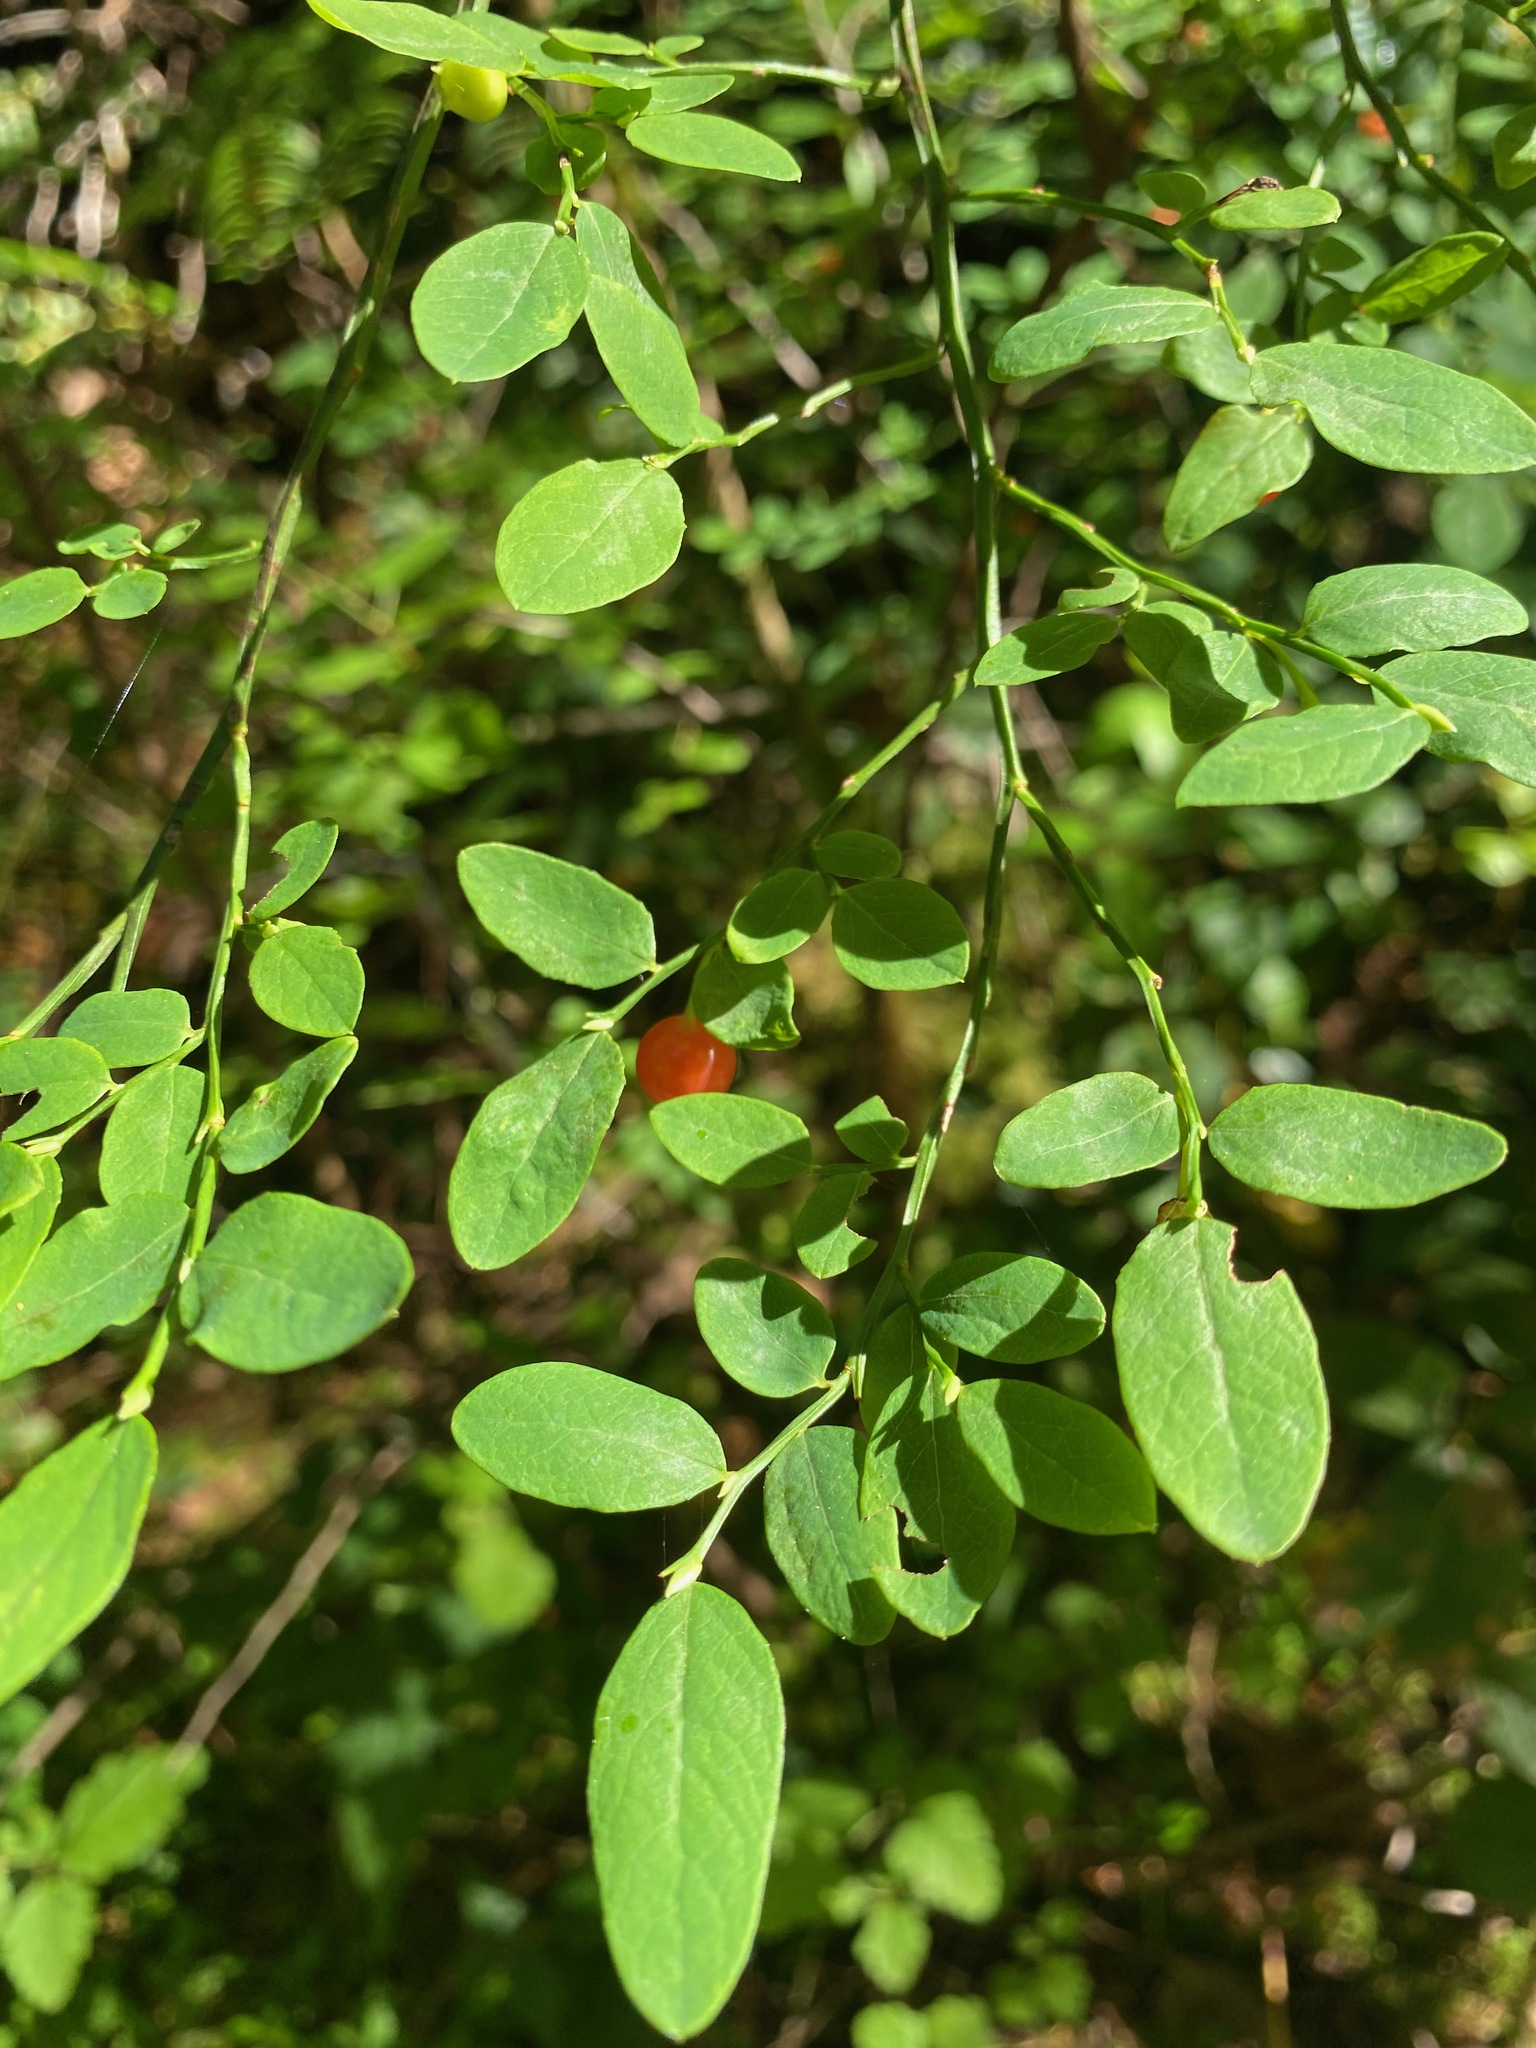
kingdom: Plantae
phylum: Tracheophyta
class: Magnoliopsida
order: Ericales
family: Ericaceae
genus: Vaccinium
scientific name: Vaccinium parvifolium
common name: Red-huckleberry
